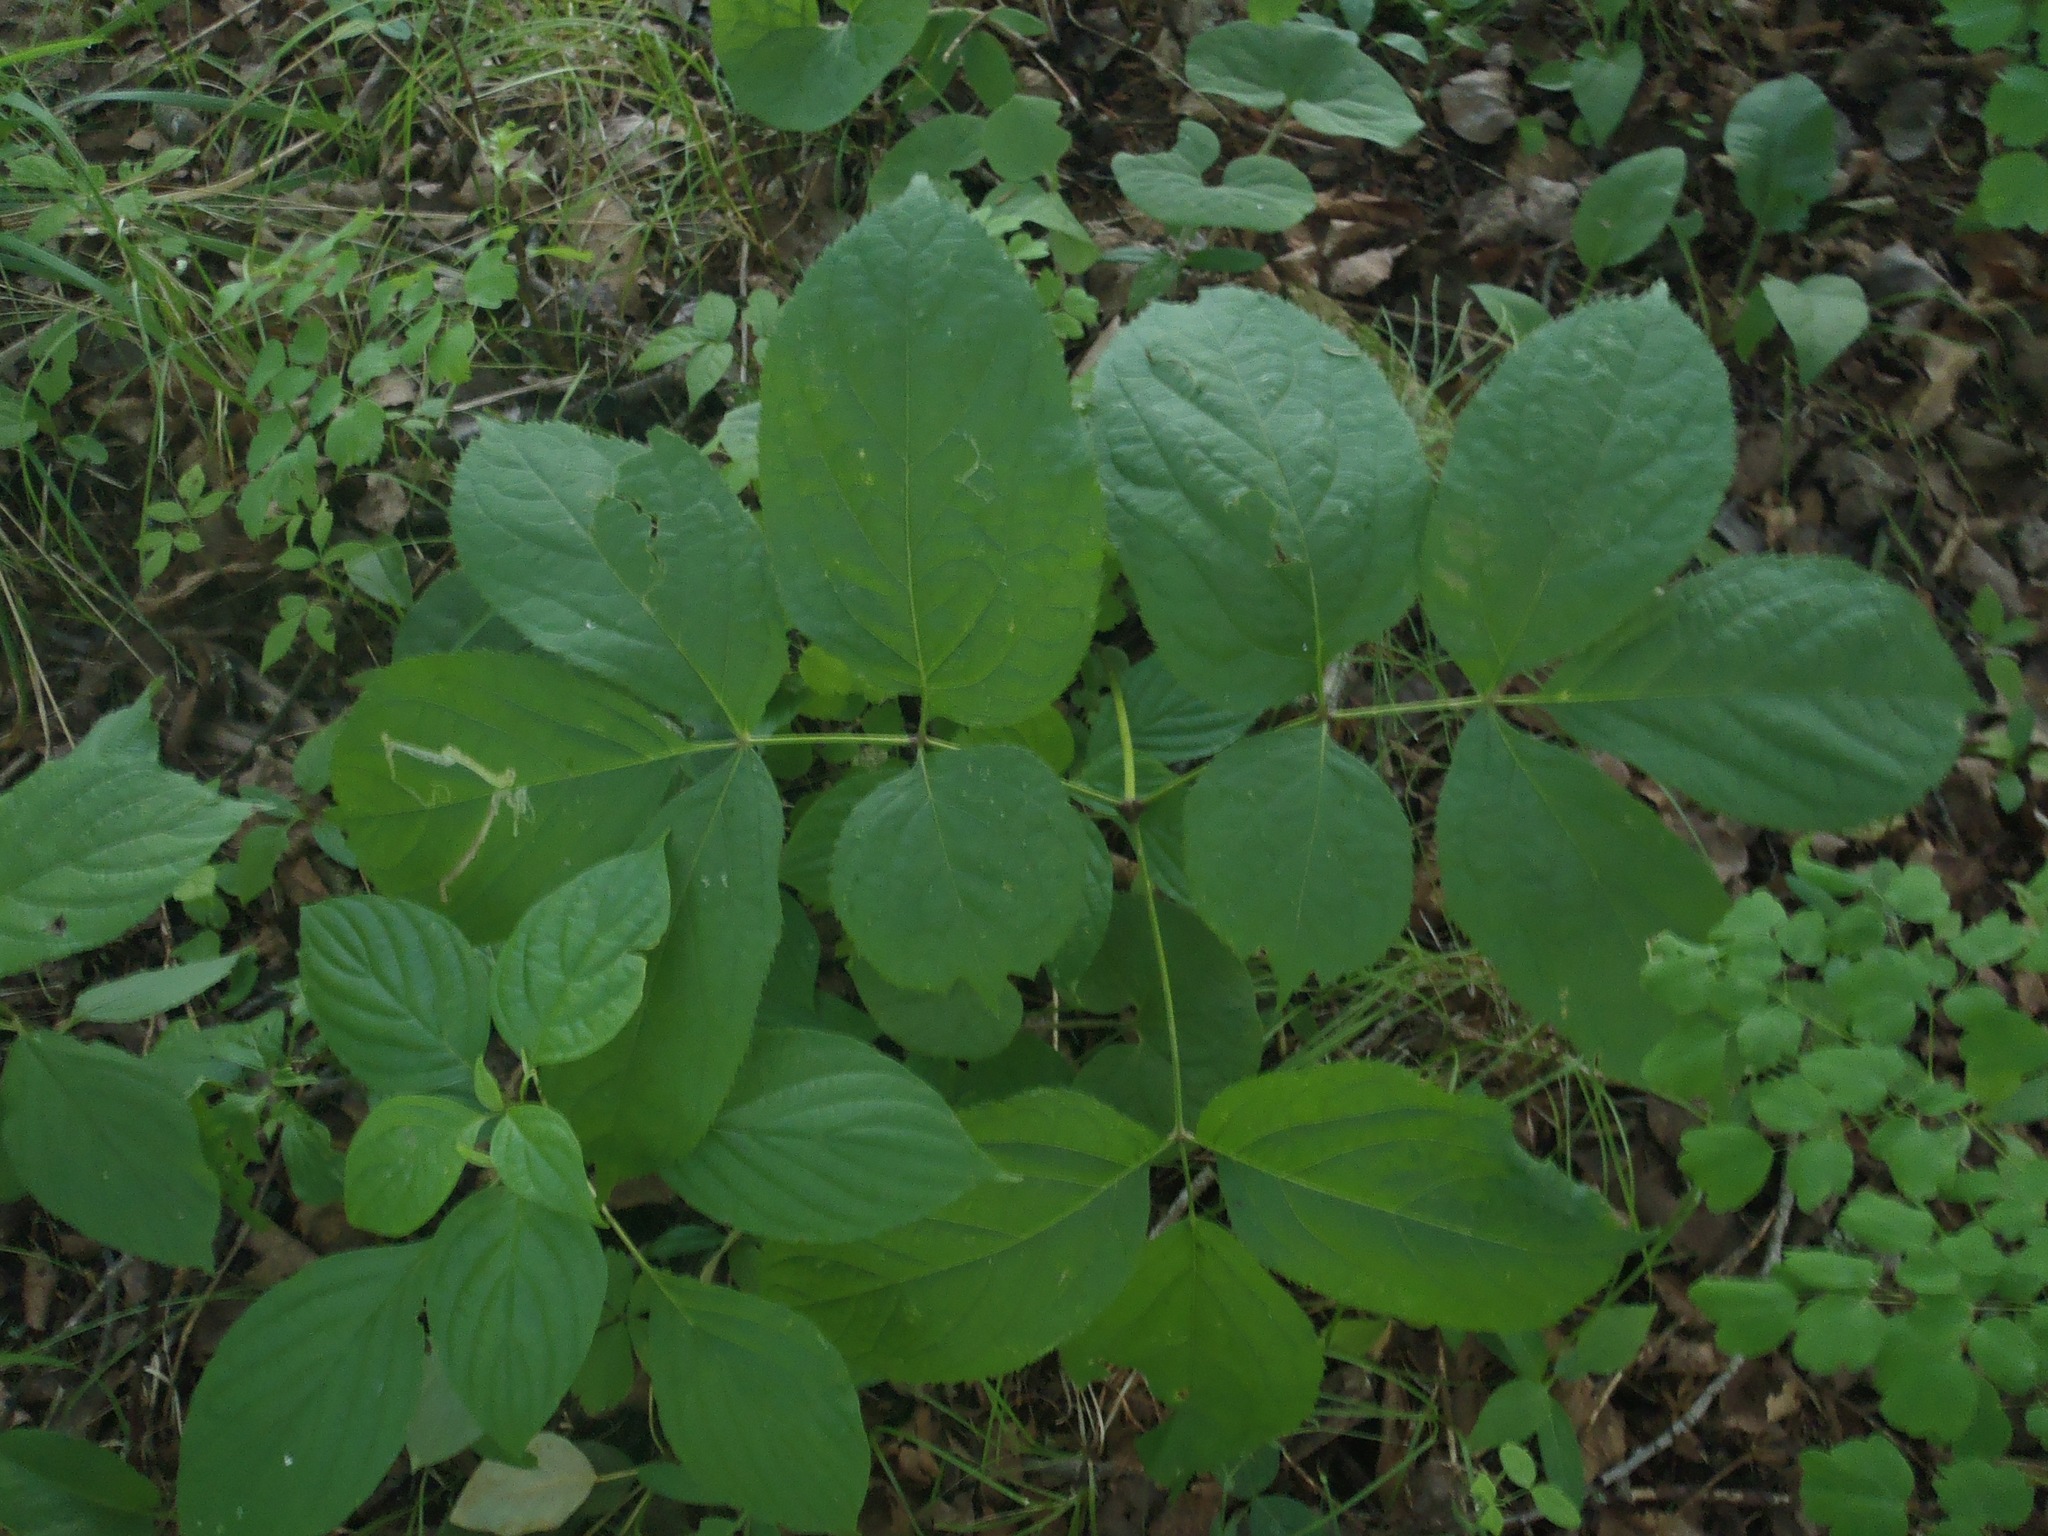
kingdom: Plantae
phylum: Tracheophyta
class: Magnoliopsida
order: Apiales
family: Araliaceae
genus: Aralia
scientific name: Aralia nudicaulis
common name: Wild sarsaparilla
